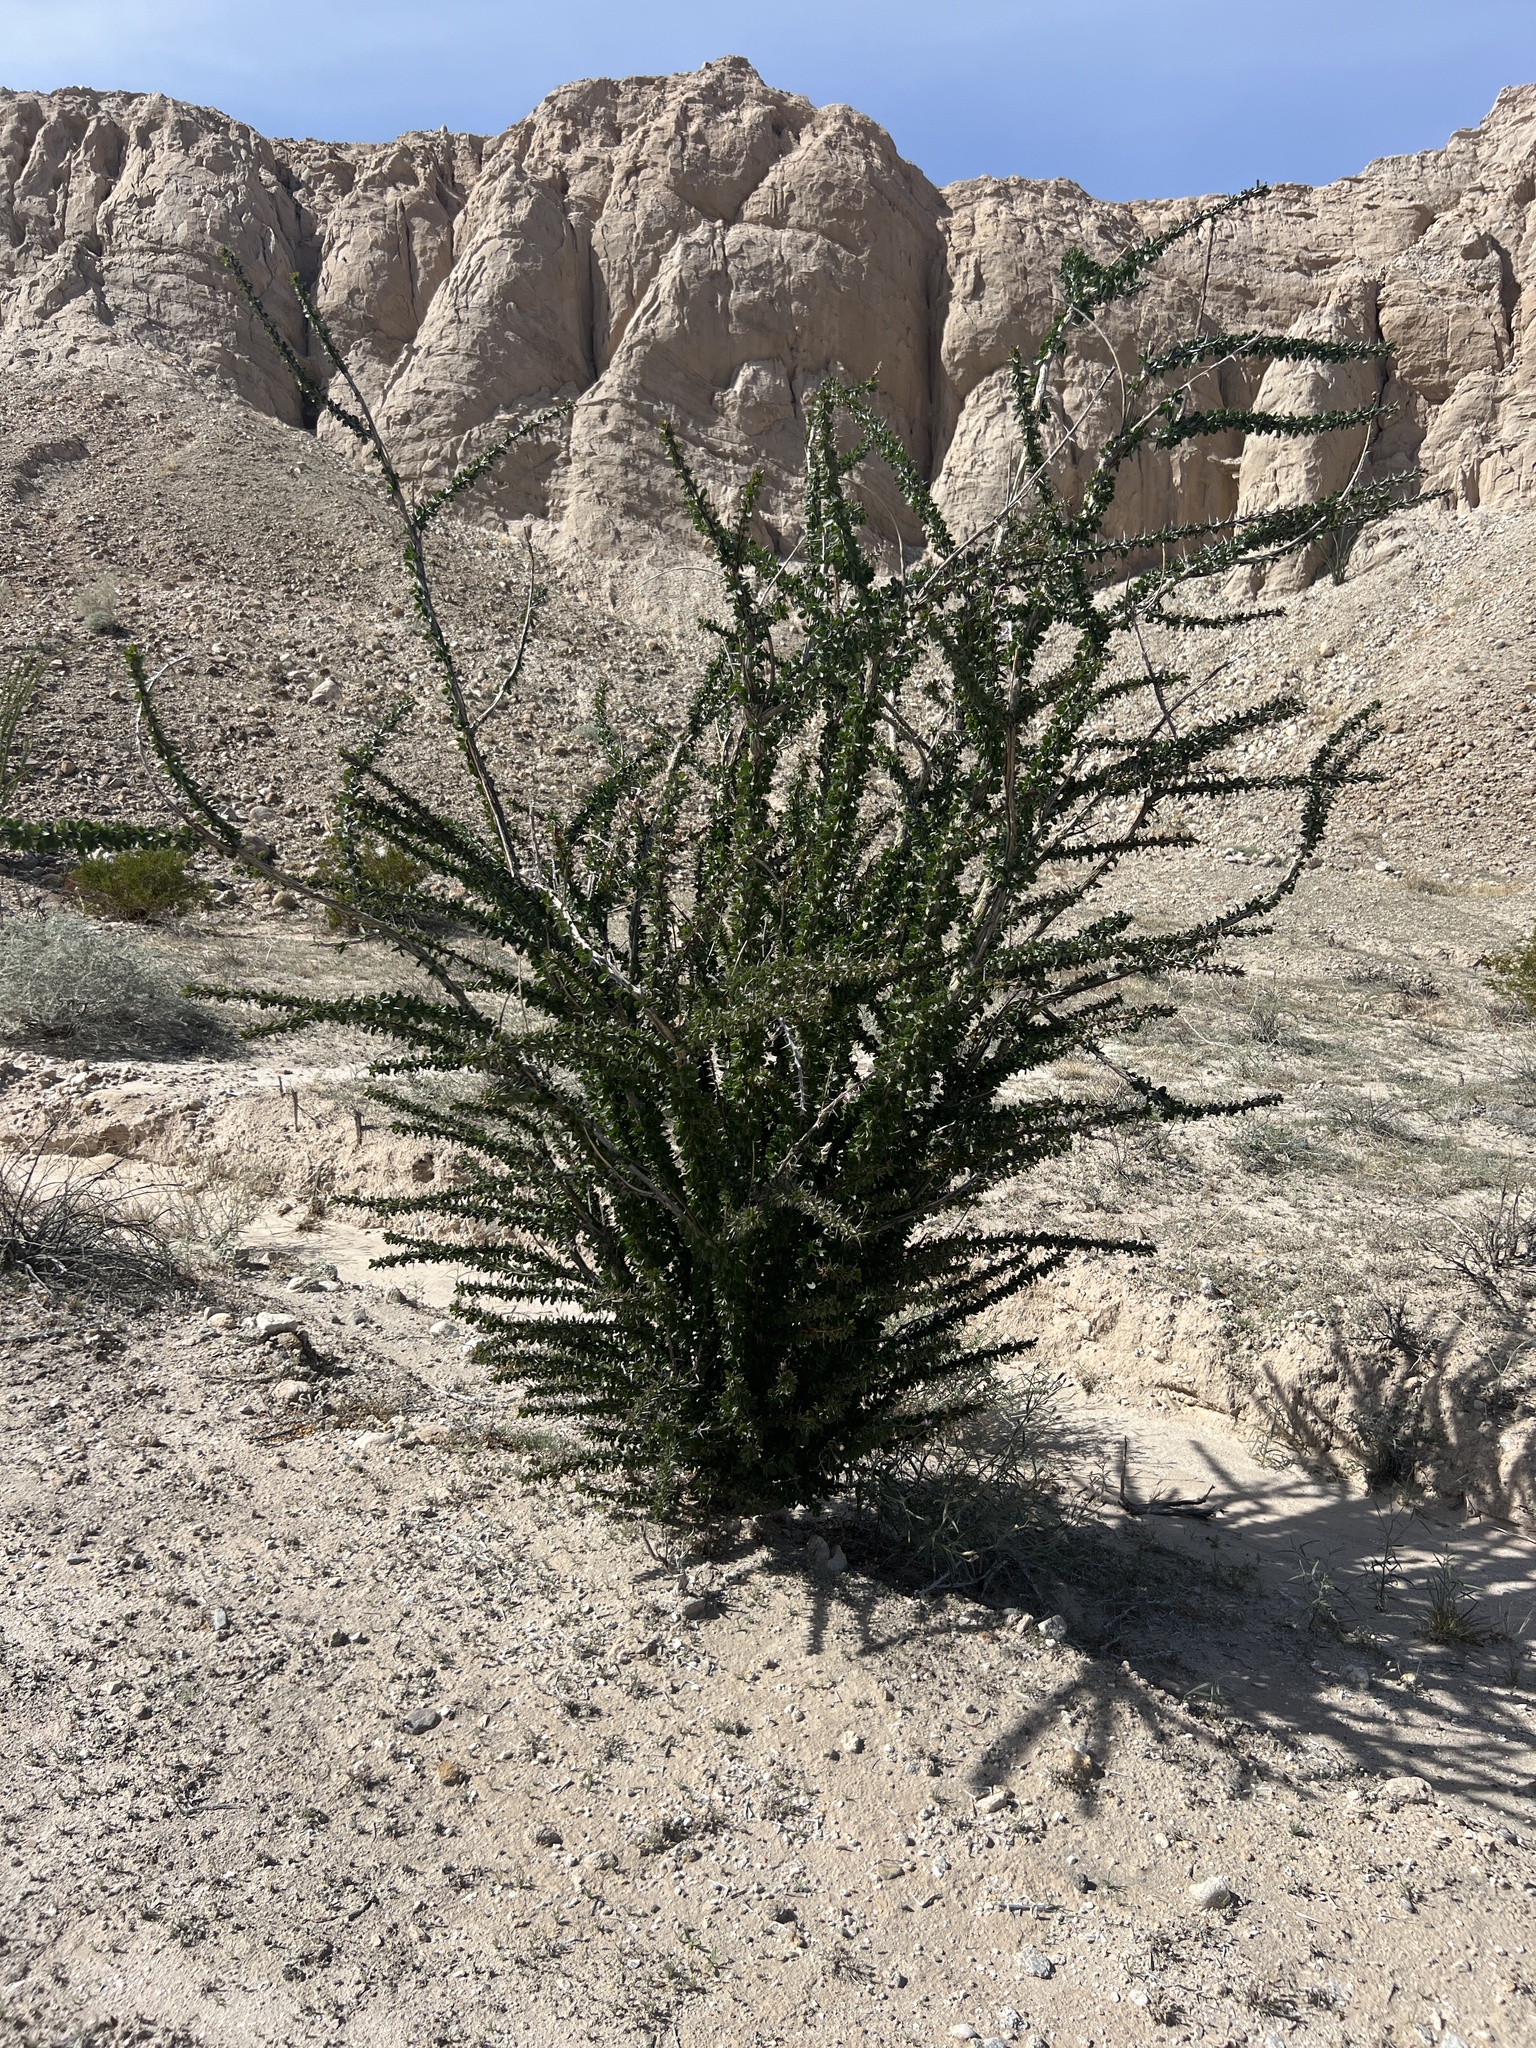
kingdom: Plantae
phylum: Tracheophyta
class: Magnoliopsida
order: Ericales
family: Fouquieriaceae
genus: Fouquieria
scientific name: Fouquieria splendens
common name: Vine-cactus
